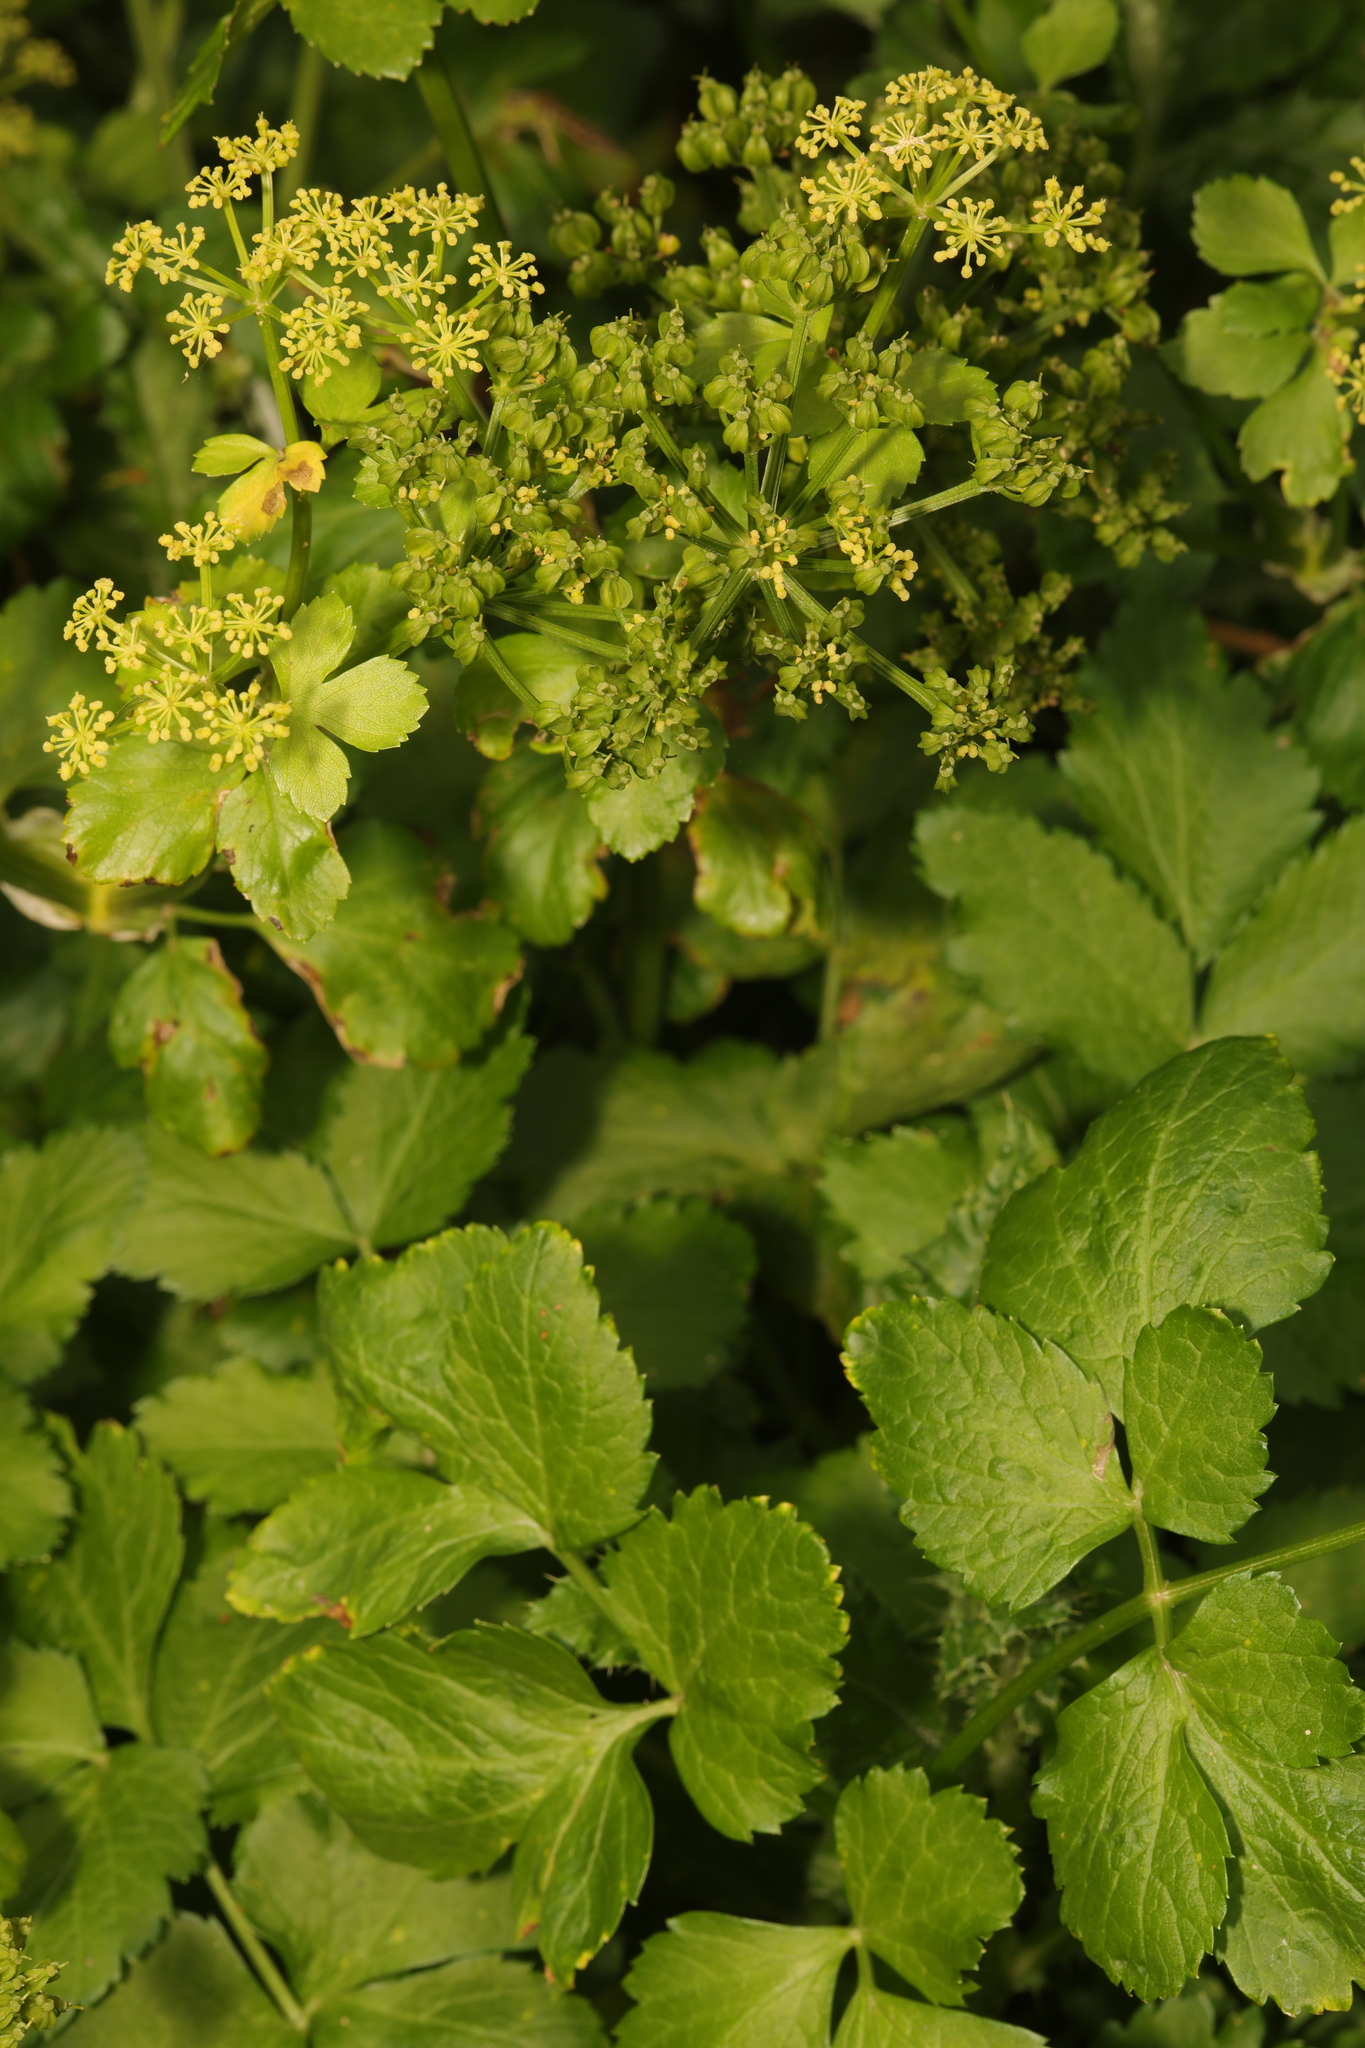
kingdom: Plantae
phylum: Tracheophyta
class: Magnoliopsida
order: Apiales
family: Apiaceae
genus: Smyrnium
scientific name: Smyrnium olusatrum
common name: Alexanders
